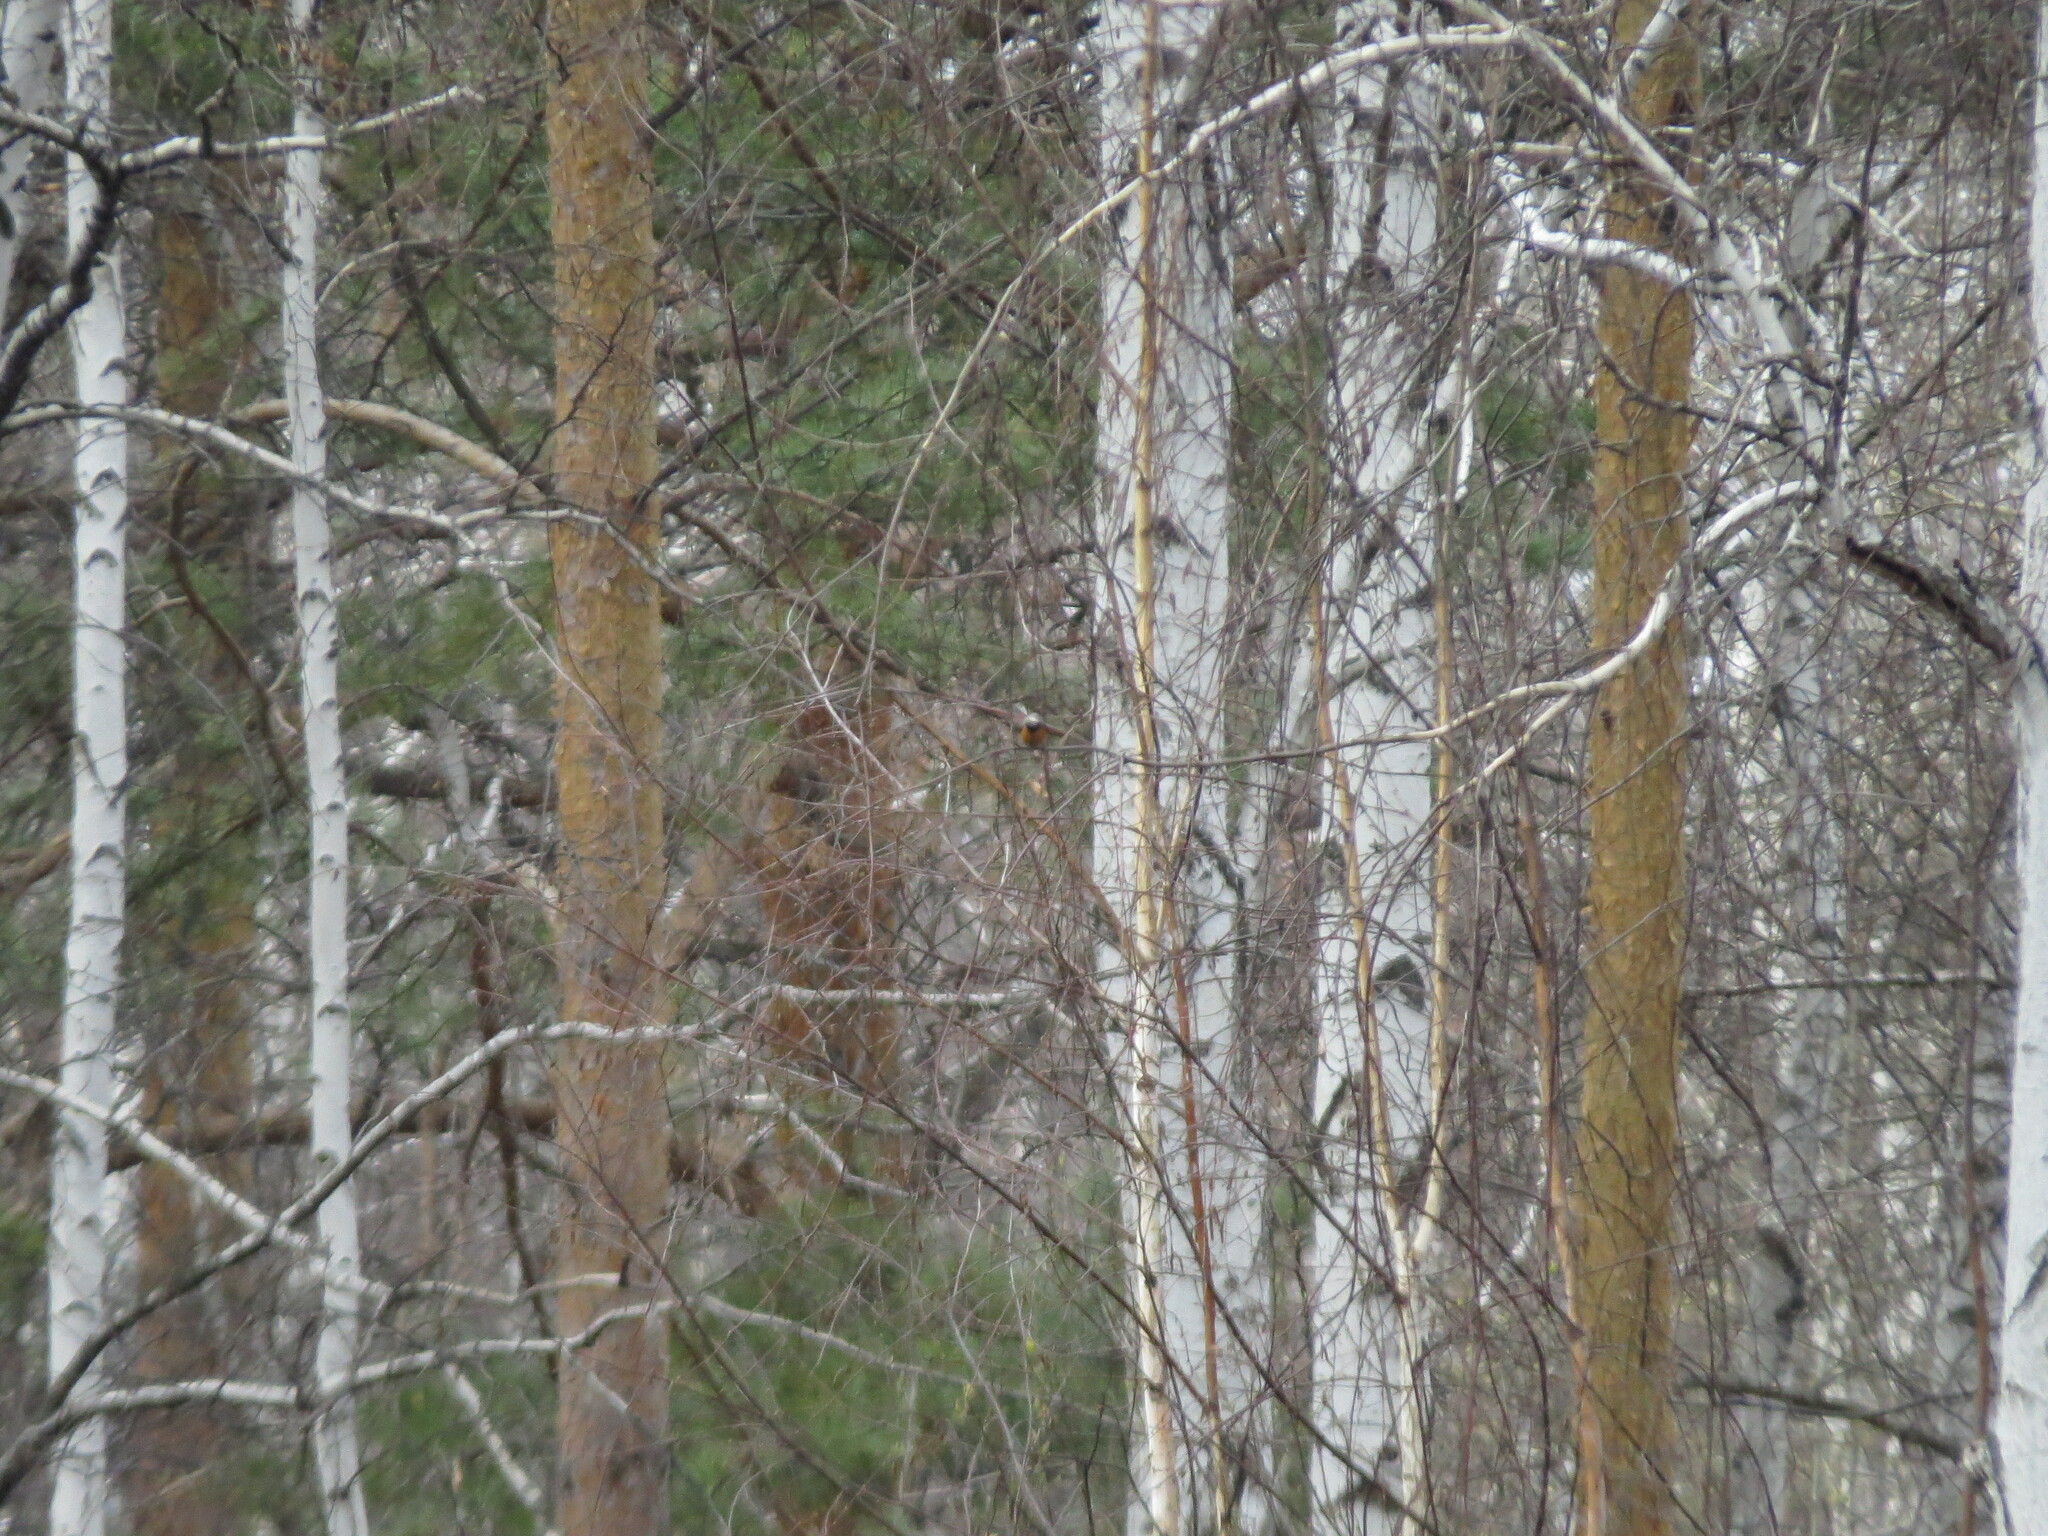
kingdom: Animalia
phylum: Chordata
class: Aves
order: Passeriformes
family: Muscicapidae
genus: Phoenicurus
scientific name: Phoenicurus phoenicurus
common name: Common redstart
